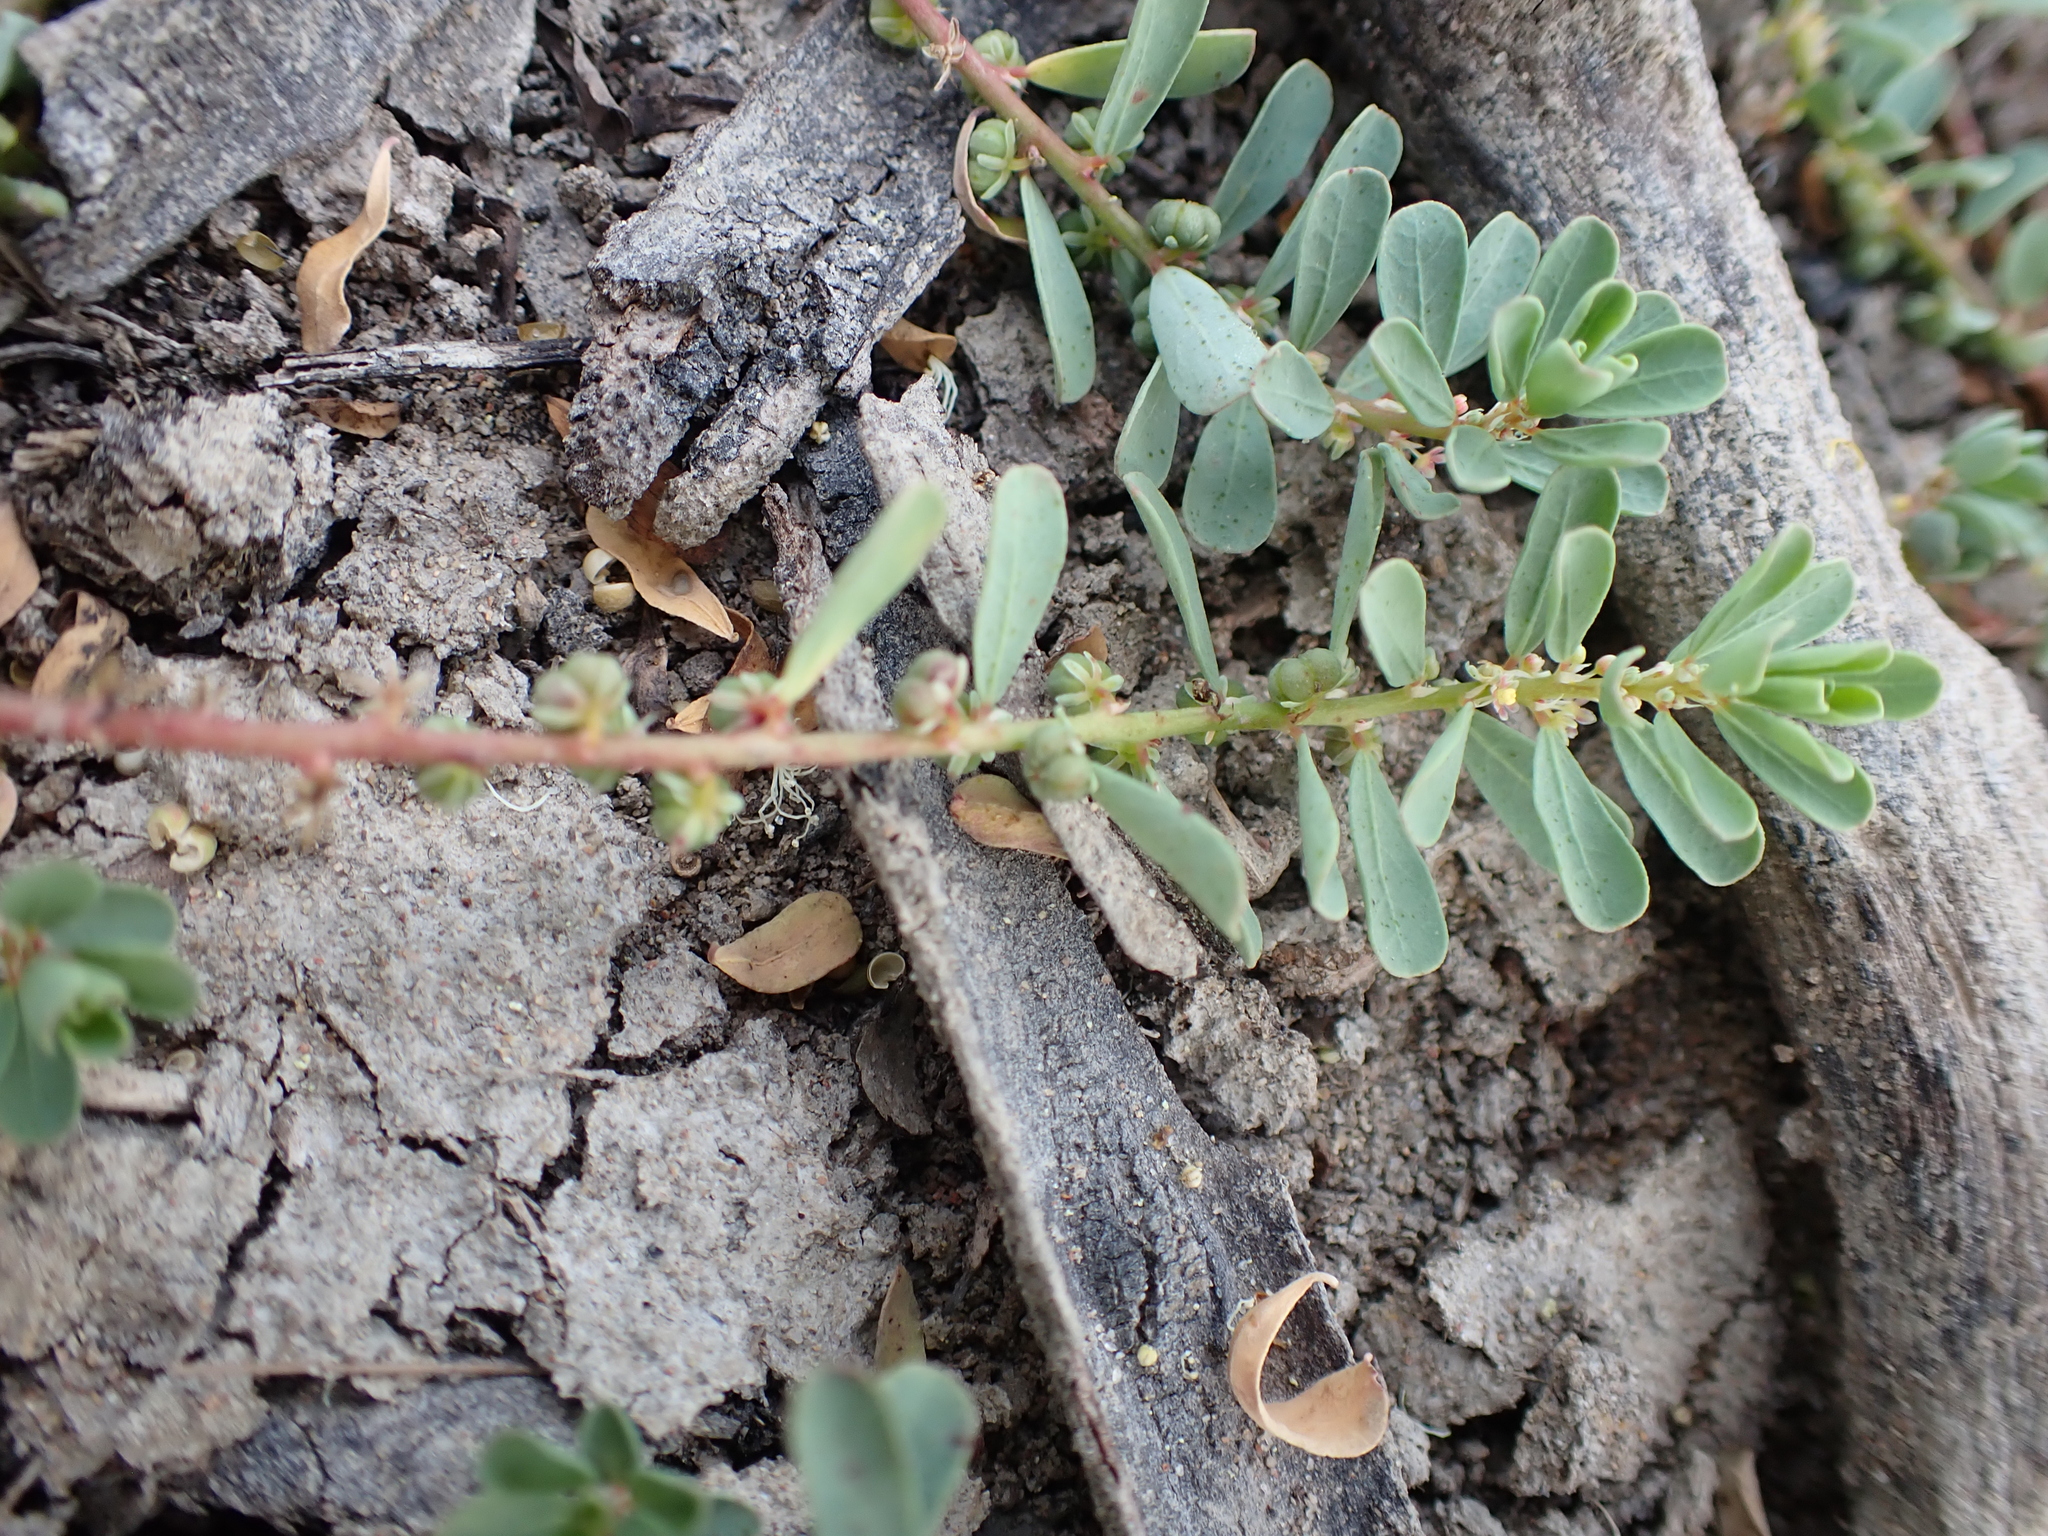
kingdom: Plantae
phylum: Tracheophyta
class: Magnoliopsida
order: Malpighiales
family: Phyllanthaceae
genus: Phyllanthus
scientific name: Phyllanthus lacunellus
